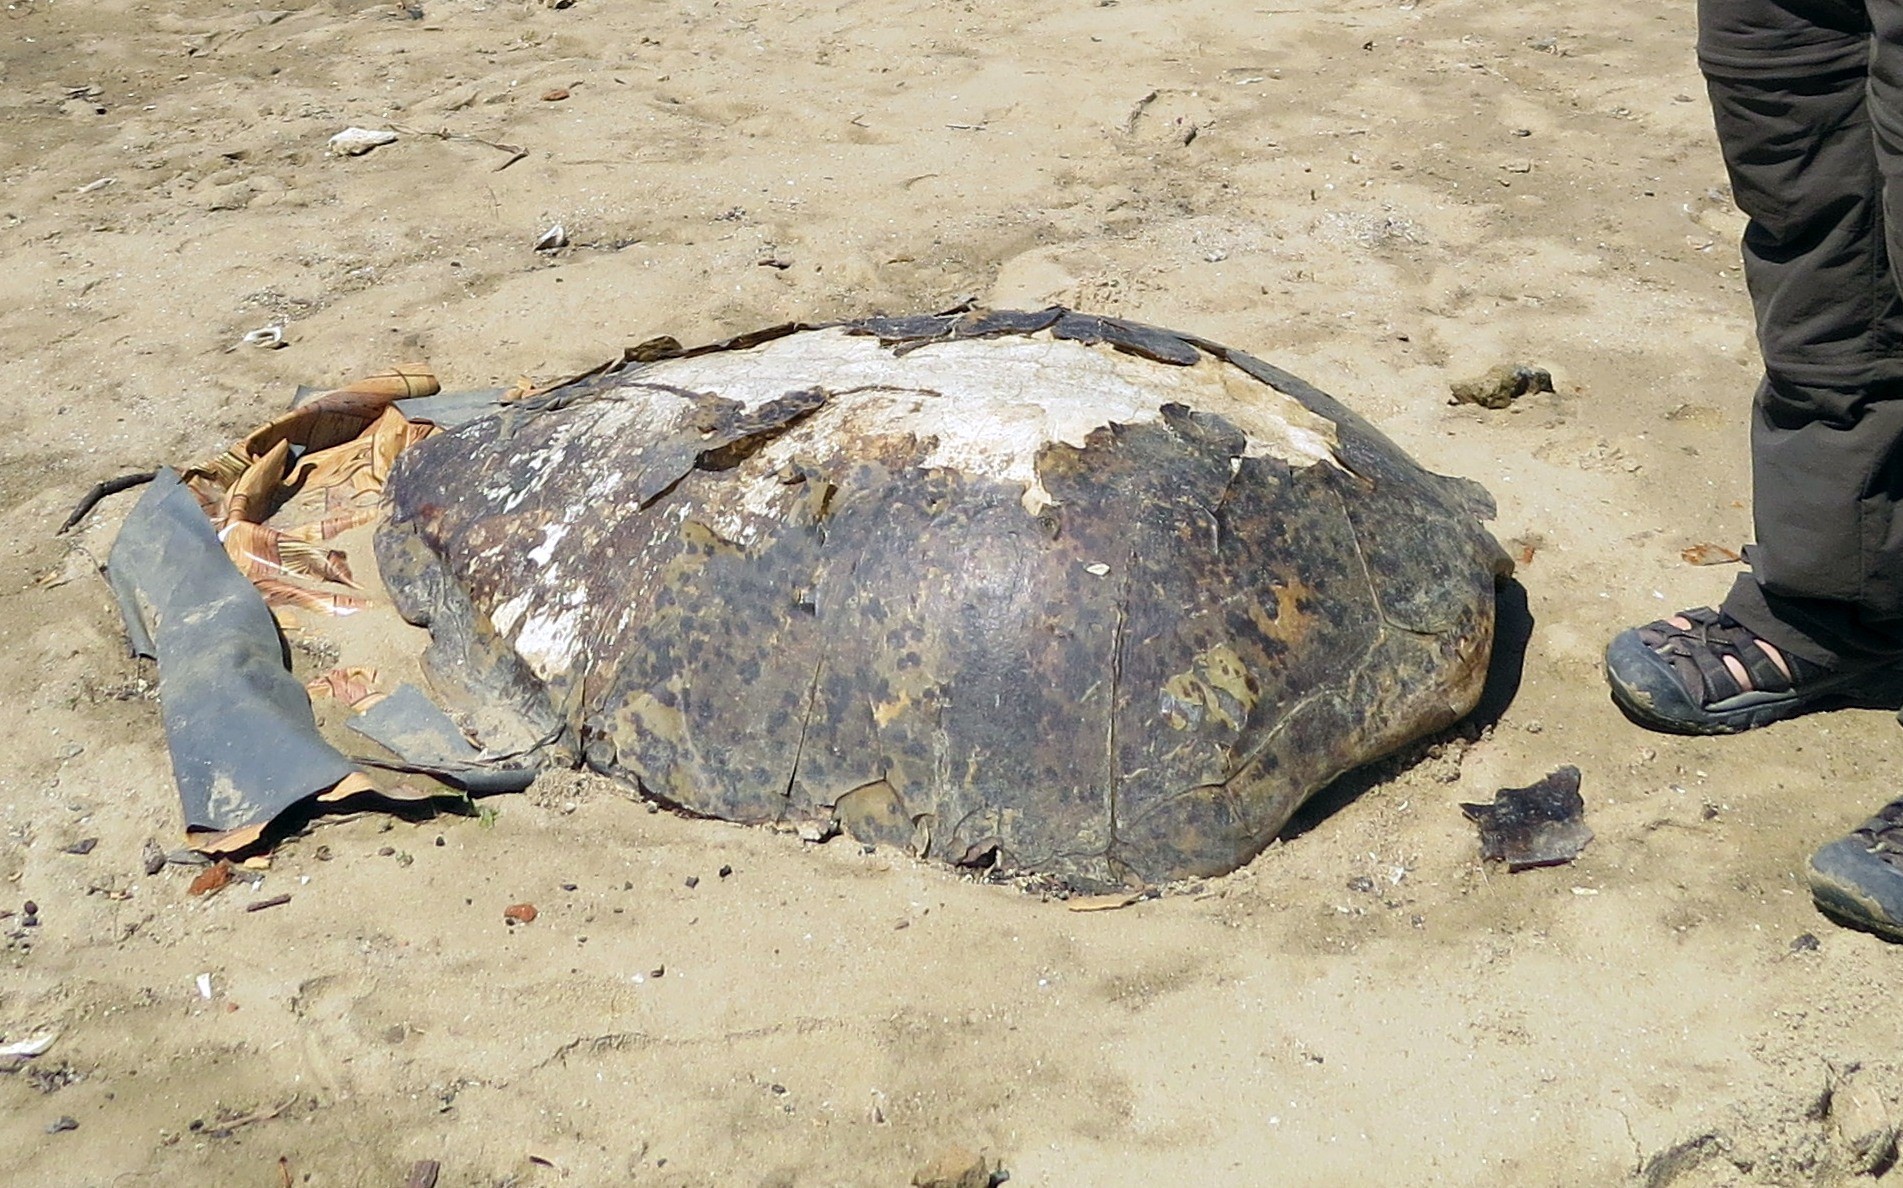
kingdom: Animalia
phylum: Chordata
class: Testudines
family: Cheloniidae
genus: Chelonia
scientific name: Chelonia mydas
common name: Green turtle
